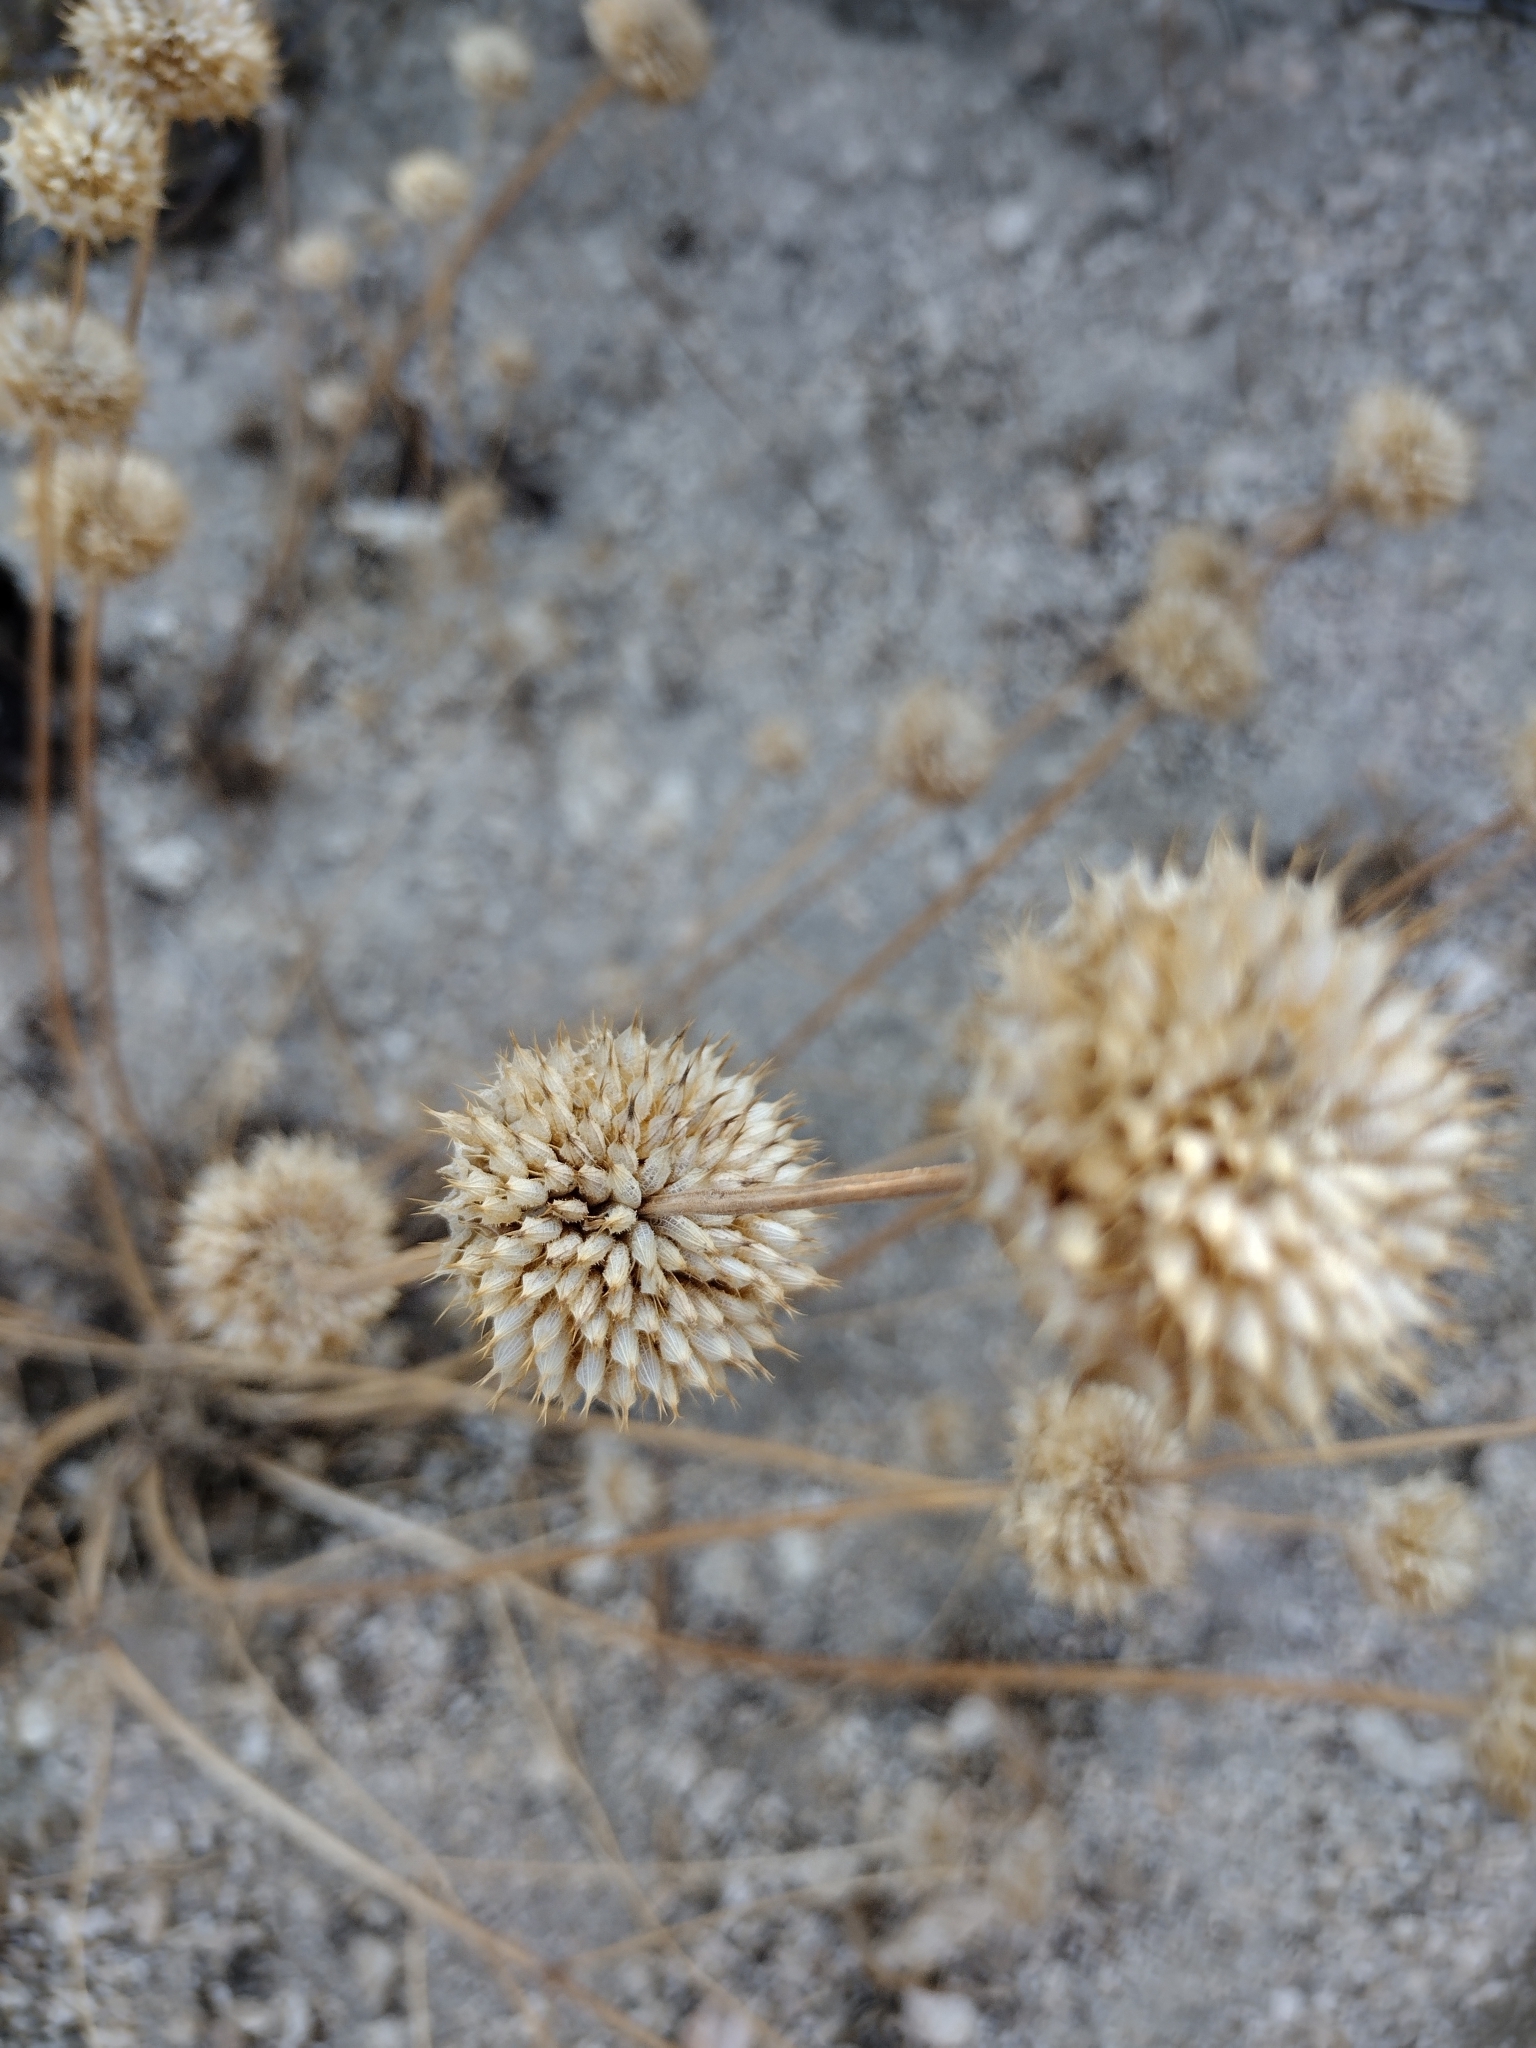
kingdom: Plantae
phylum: Tracheophyta
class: Magnoliopsida
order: Lamiales
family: Lamiaceae
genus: Salvia
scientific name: Salvia columbariae
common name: Chia
